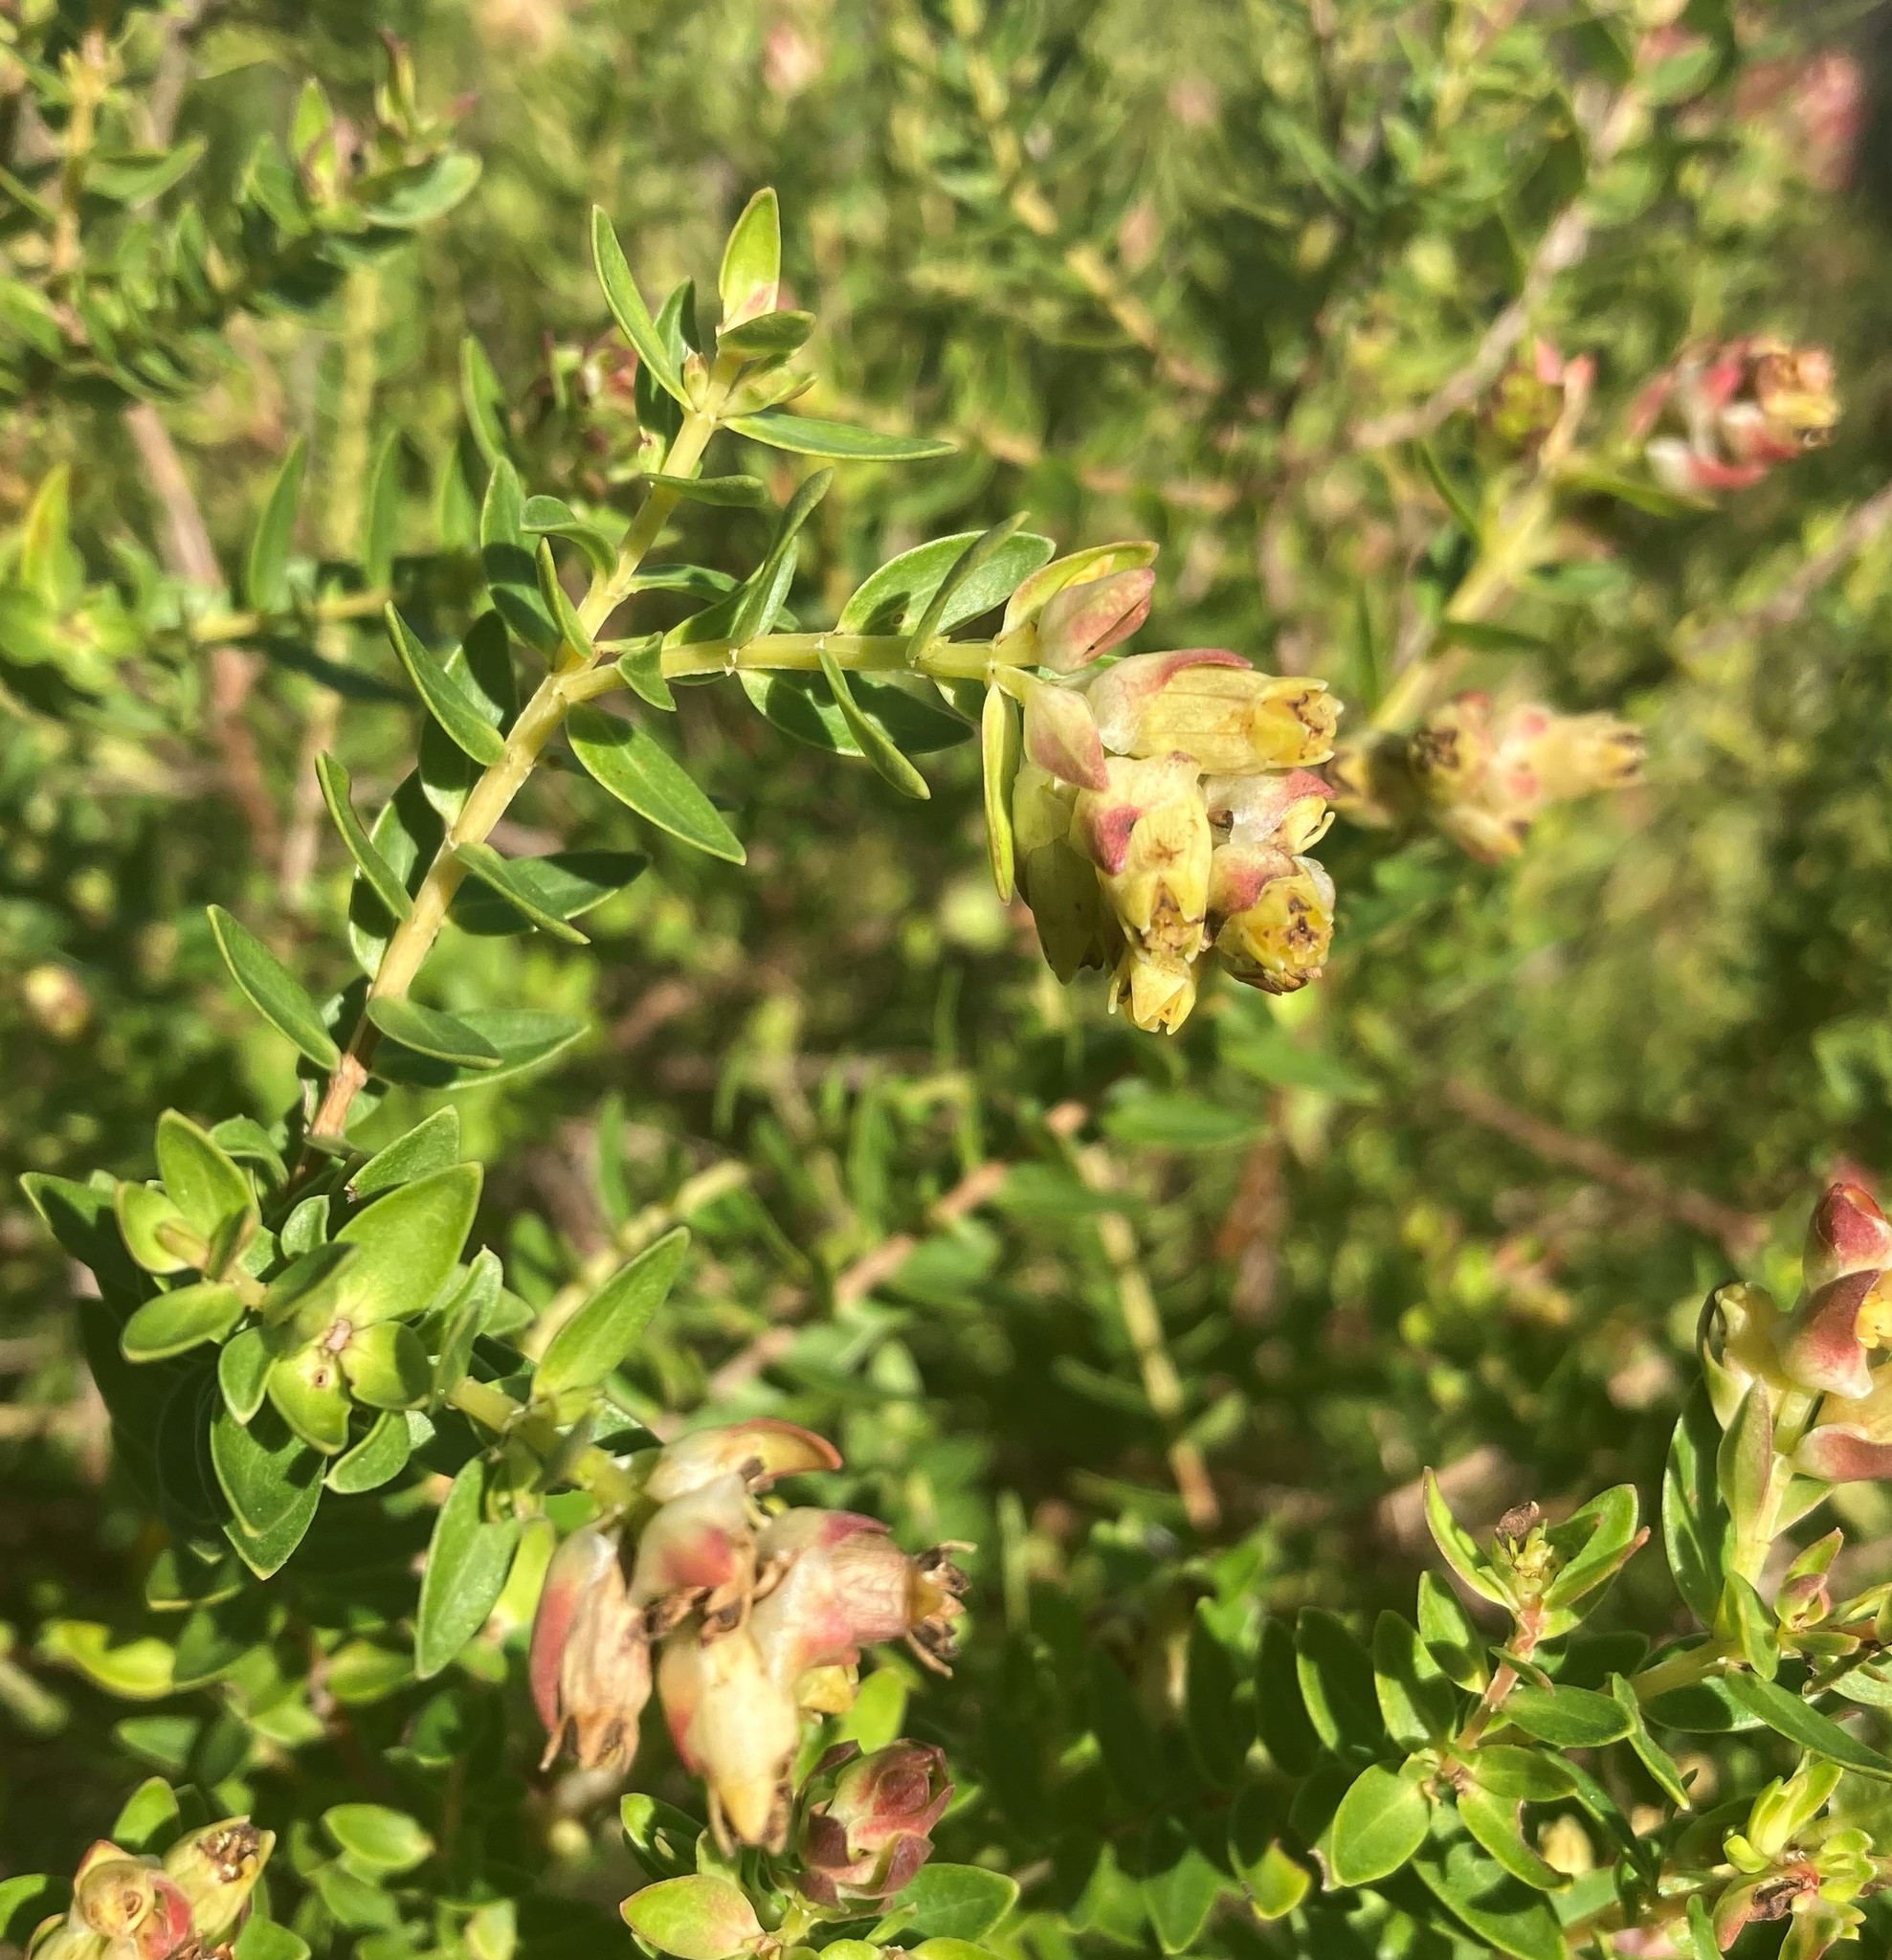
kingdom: Plantae
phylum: Tracheophyta
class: Magnoliopsida
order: Myrtales
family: Penaeaceae
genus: Penaea
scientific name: Penaea cneorum
